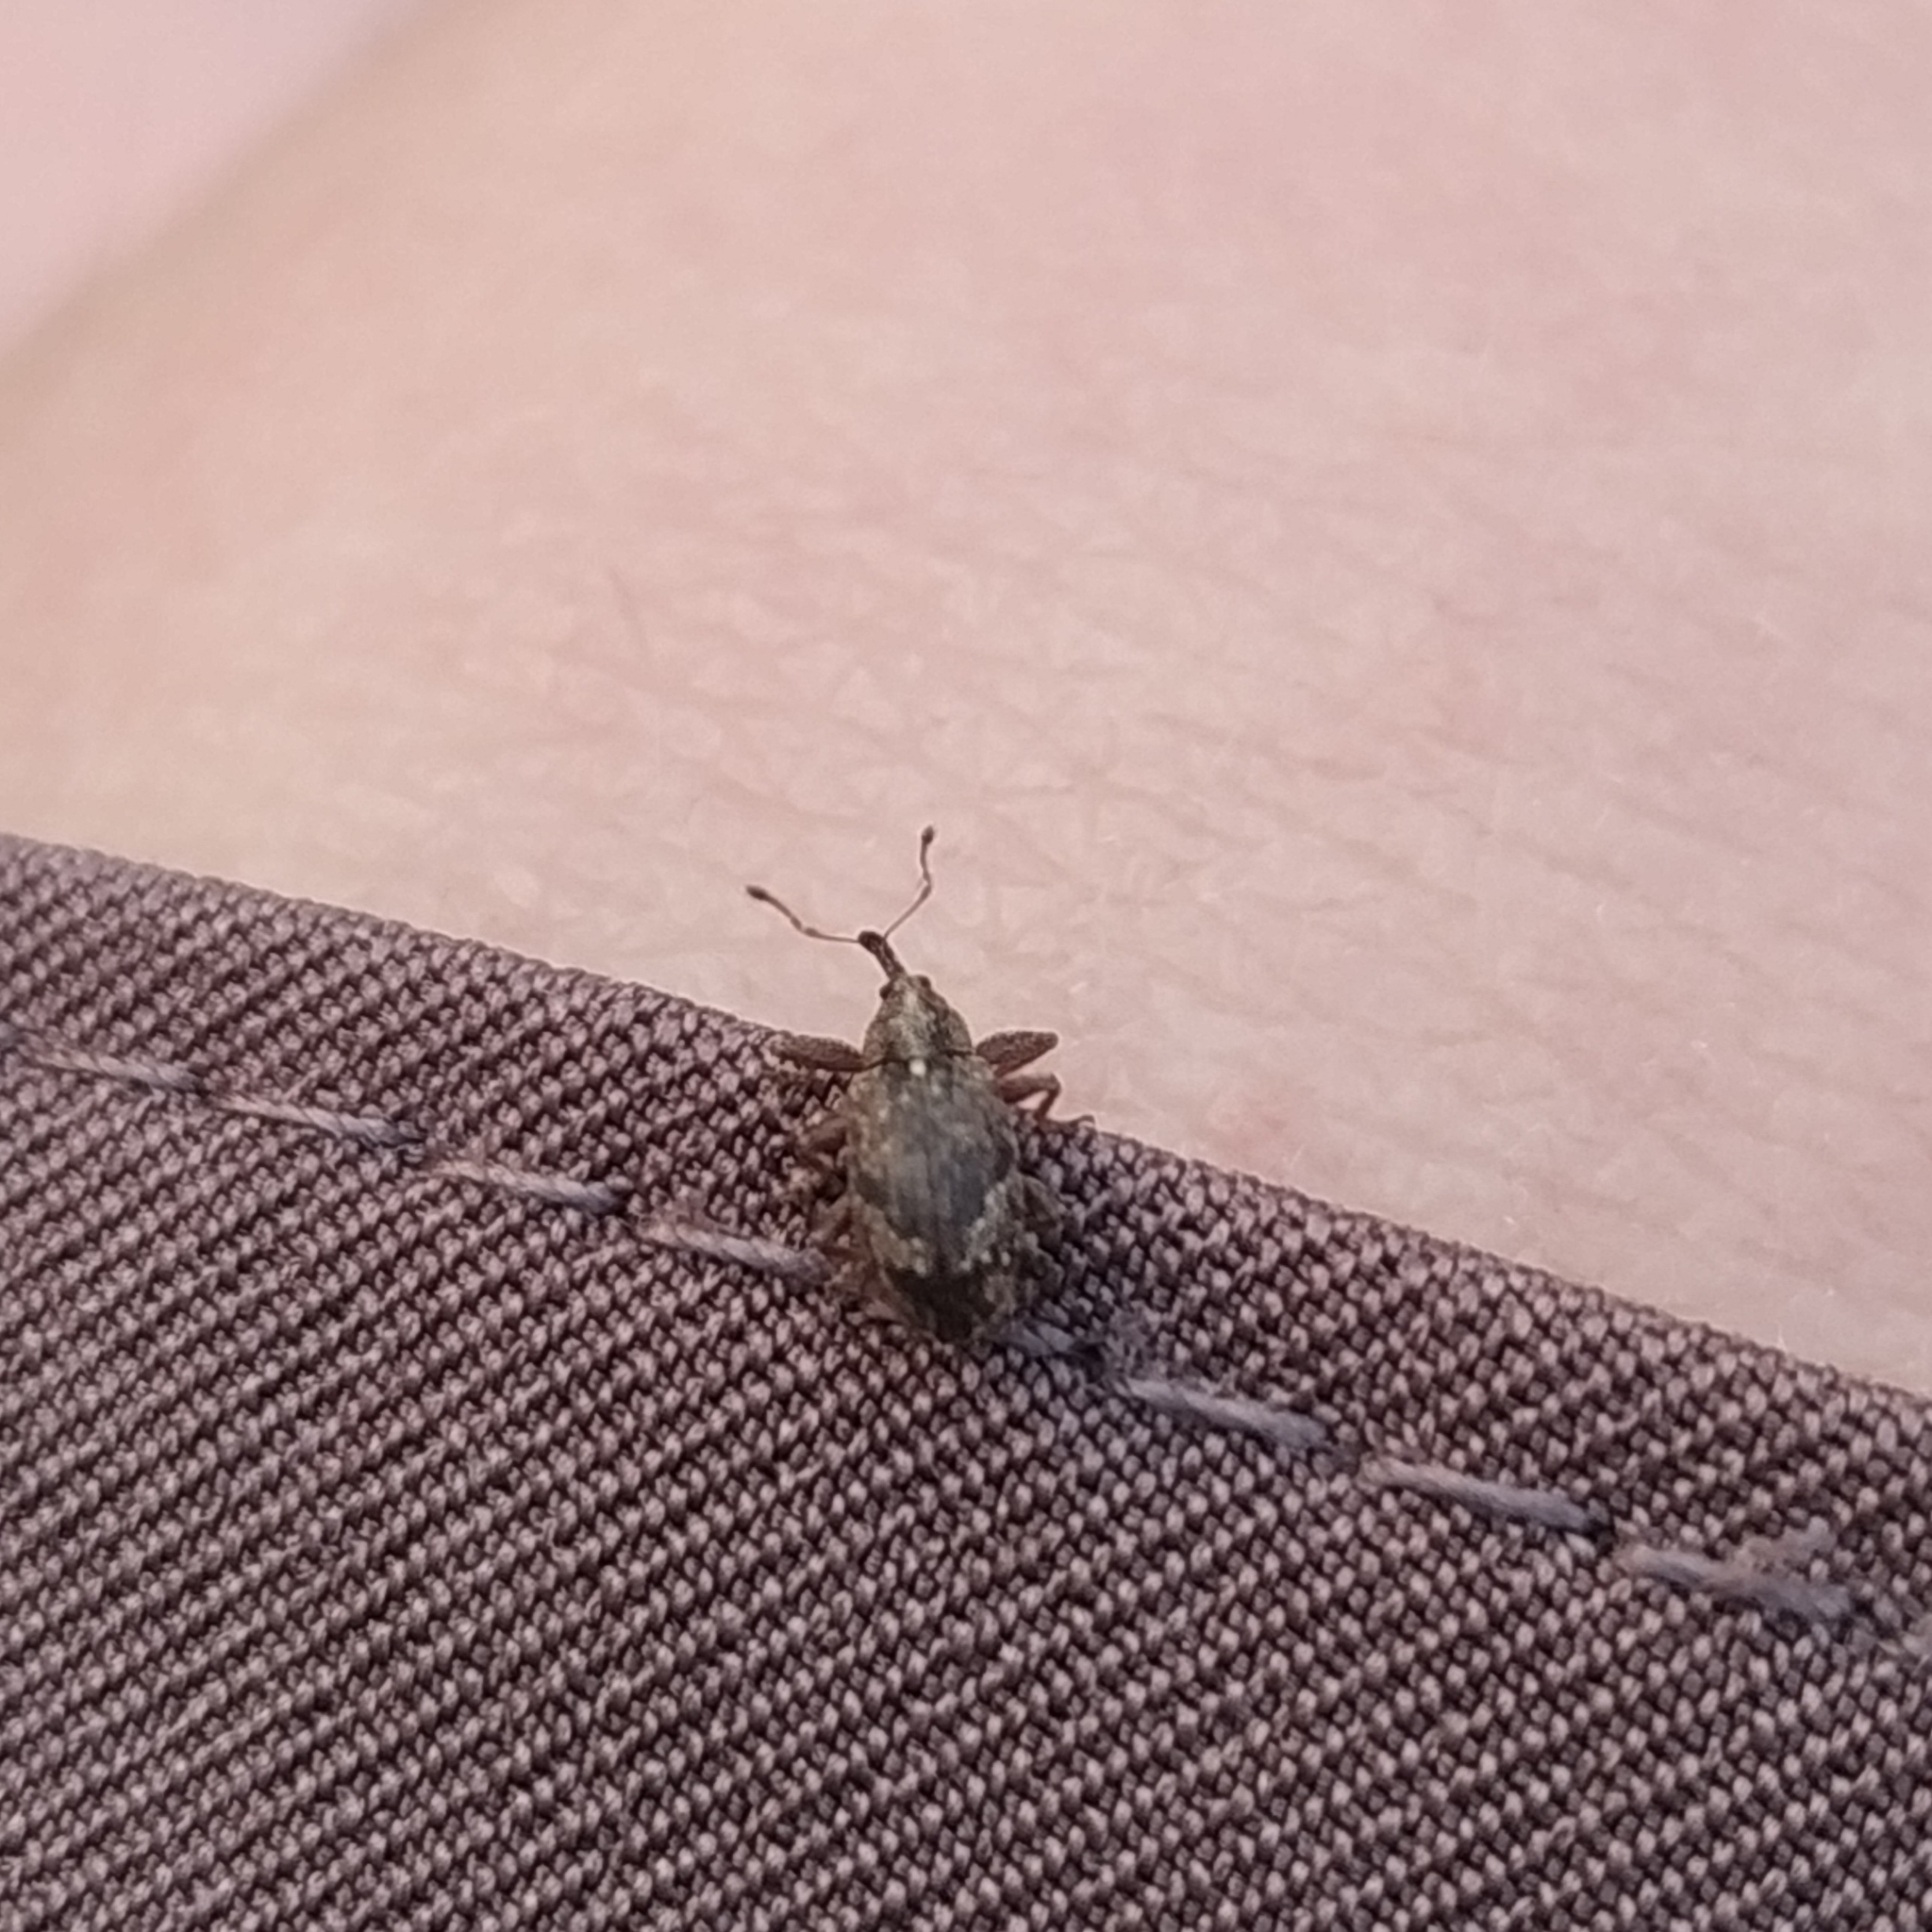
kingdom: Animalia
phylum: Arthropoda
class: Insecta
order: Coleoptera
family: Curculionidae
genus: Anthonomus
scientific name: Anthonomus pomorum
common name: Apple-blossom weevil
